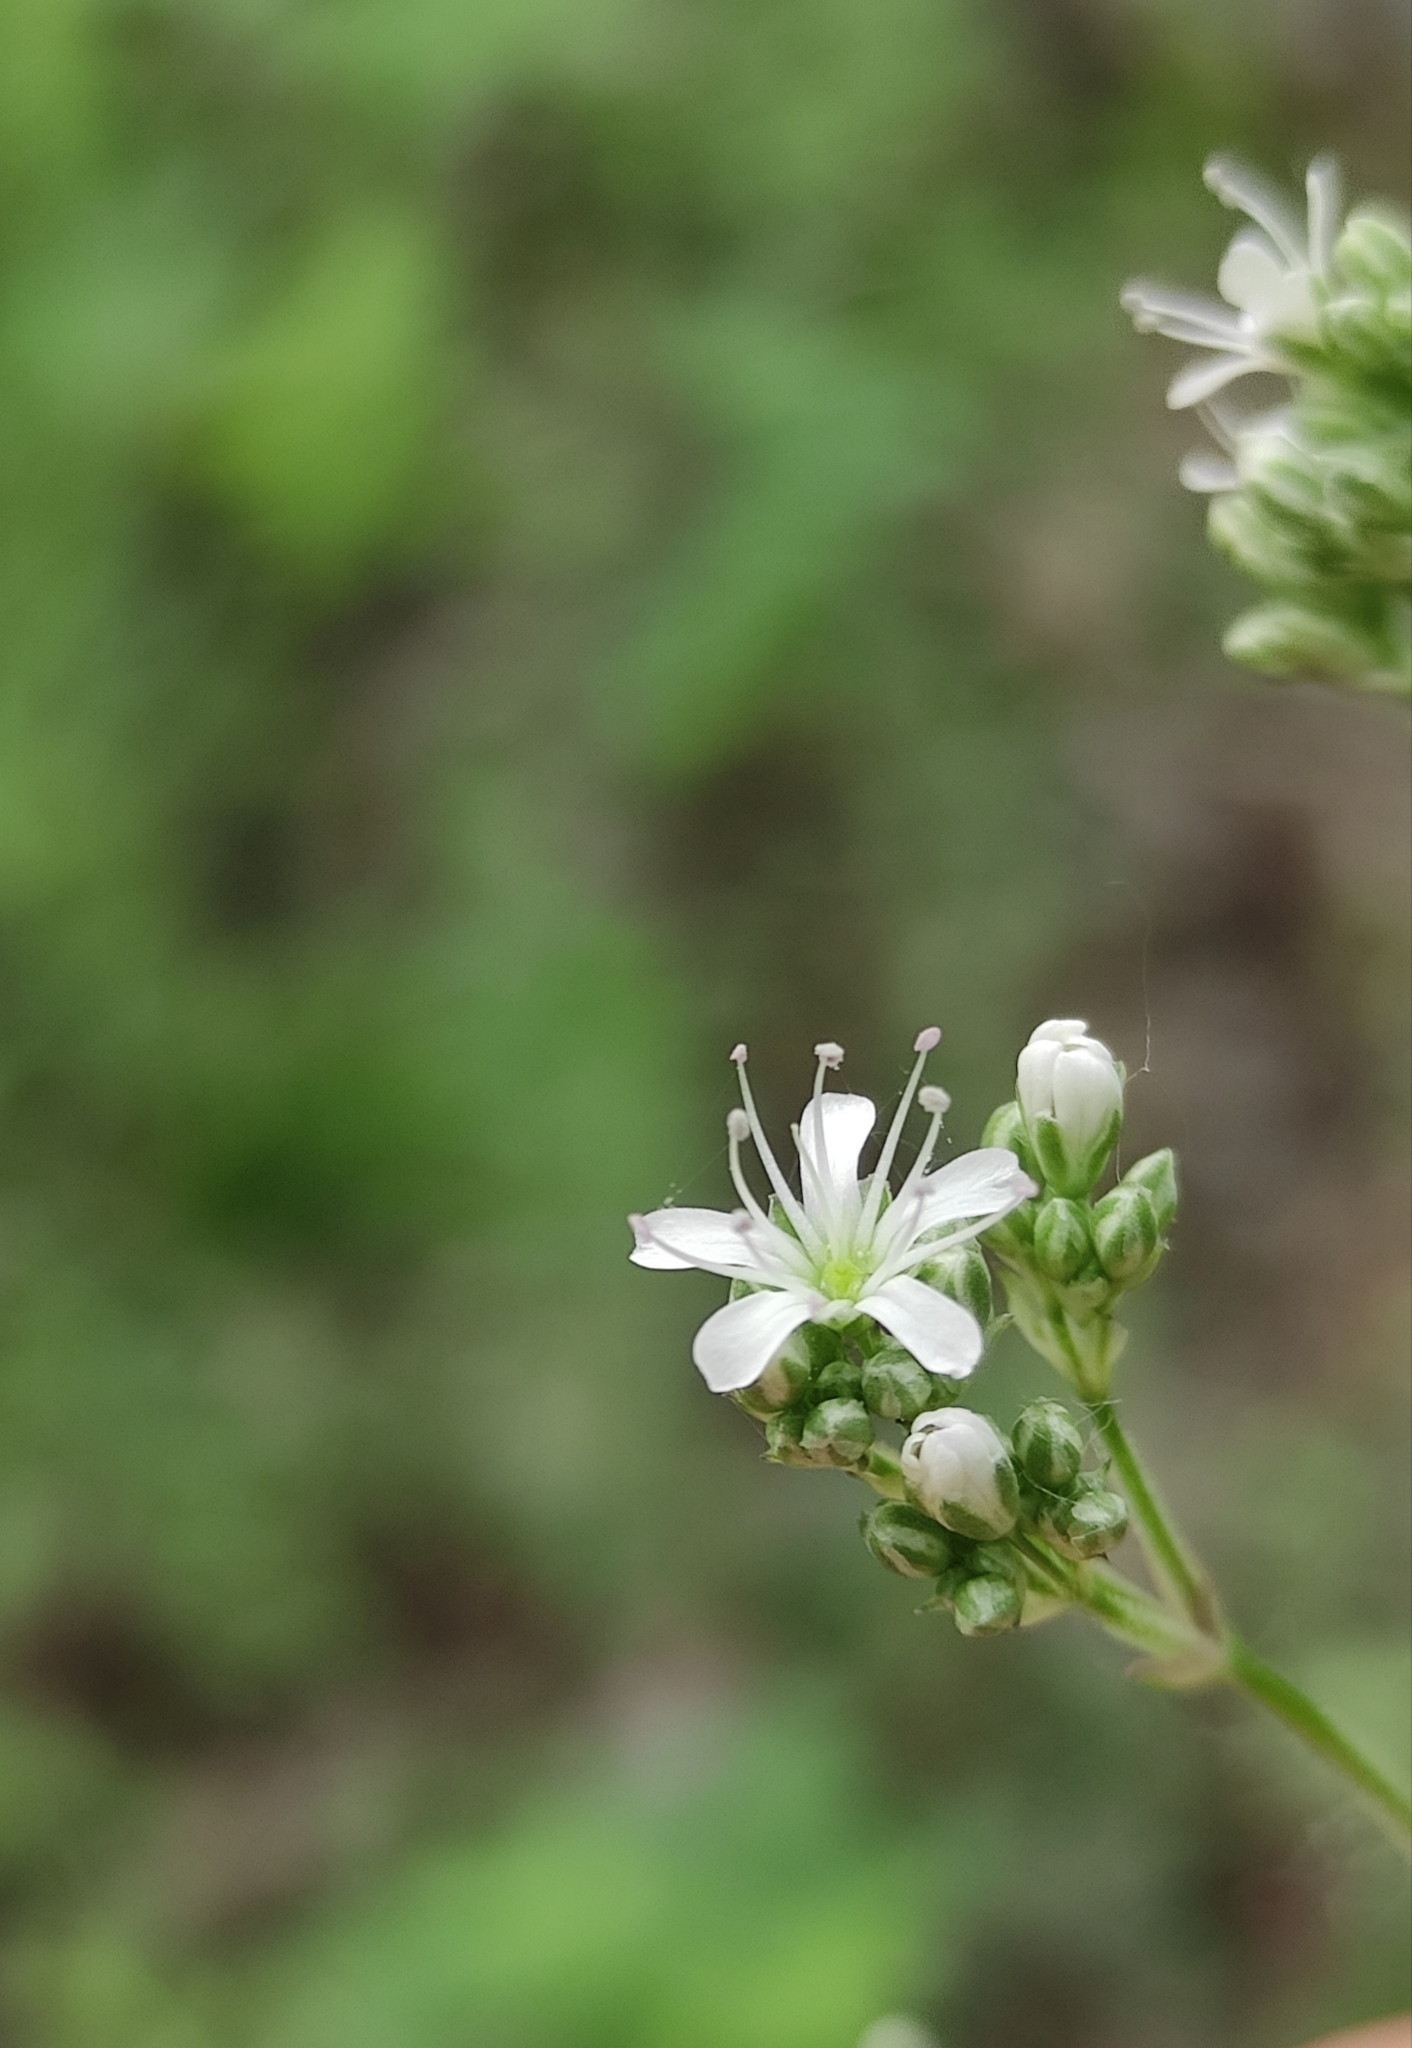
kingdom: Plantae
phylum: Tracheophyta
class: Magnoliopsida
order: Caryophyllales
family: Caryophyllaceae
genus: Gypsophila
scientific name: Gypsophila altissima
